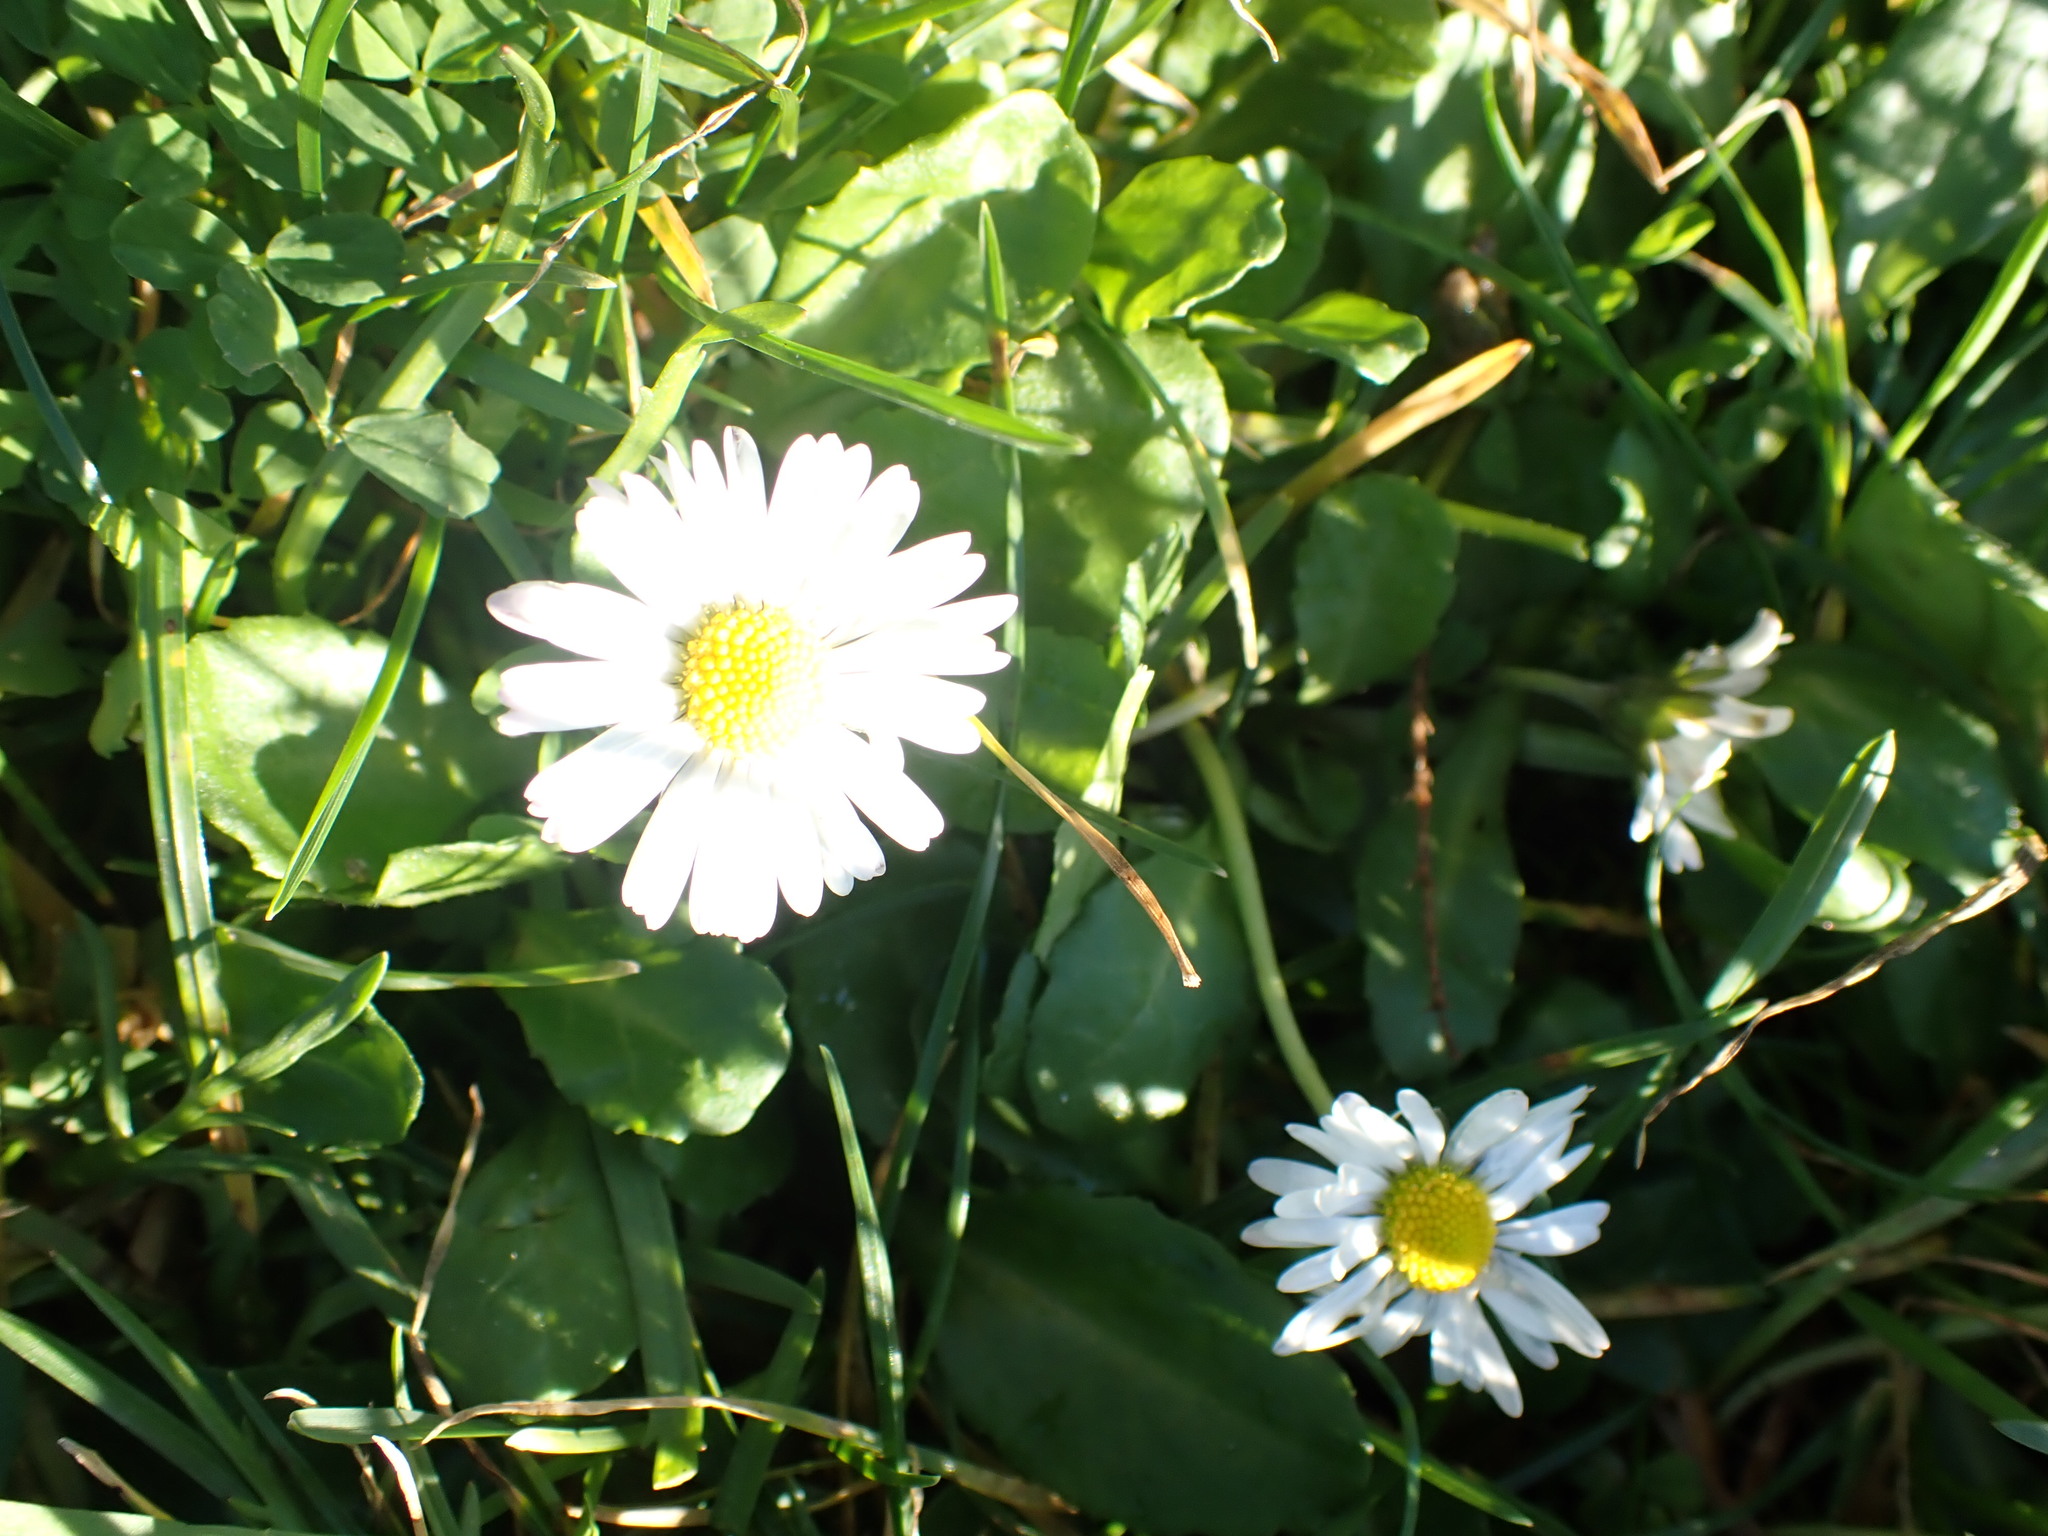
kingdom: Plantae
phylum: Tracheophyta
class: Magnoliopsida
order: Asterales
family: Asteraceae
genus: Bellis
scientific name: Bellis perennis
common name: Lawndaisy
